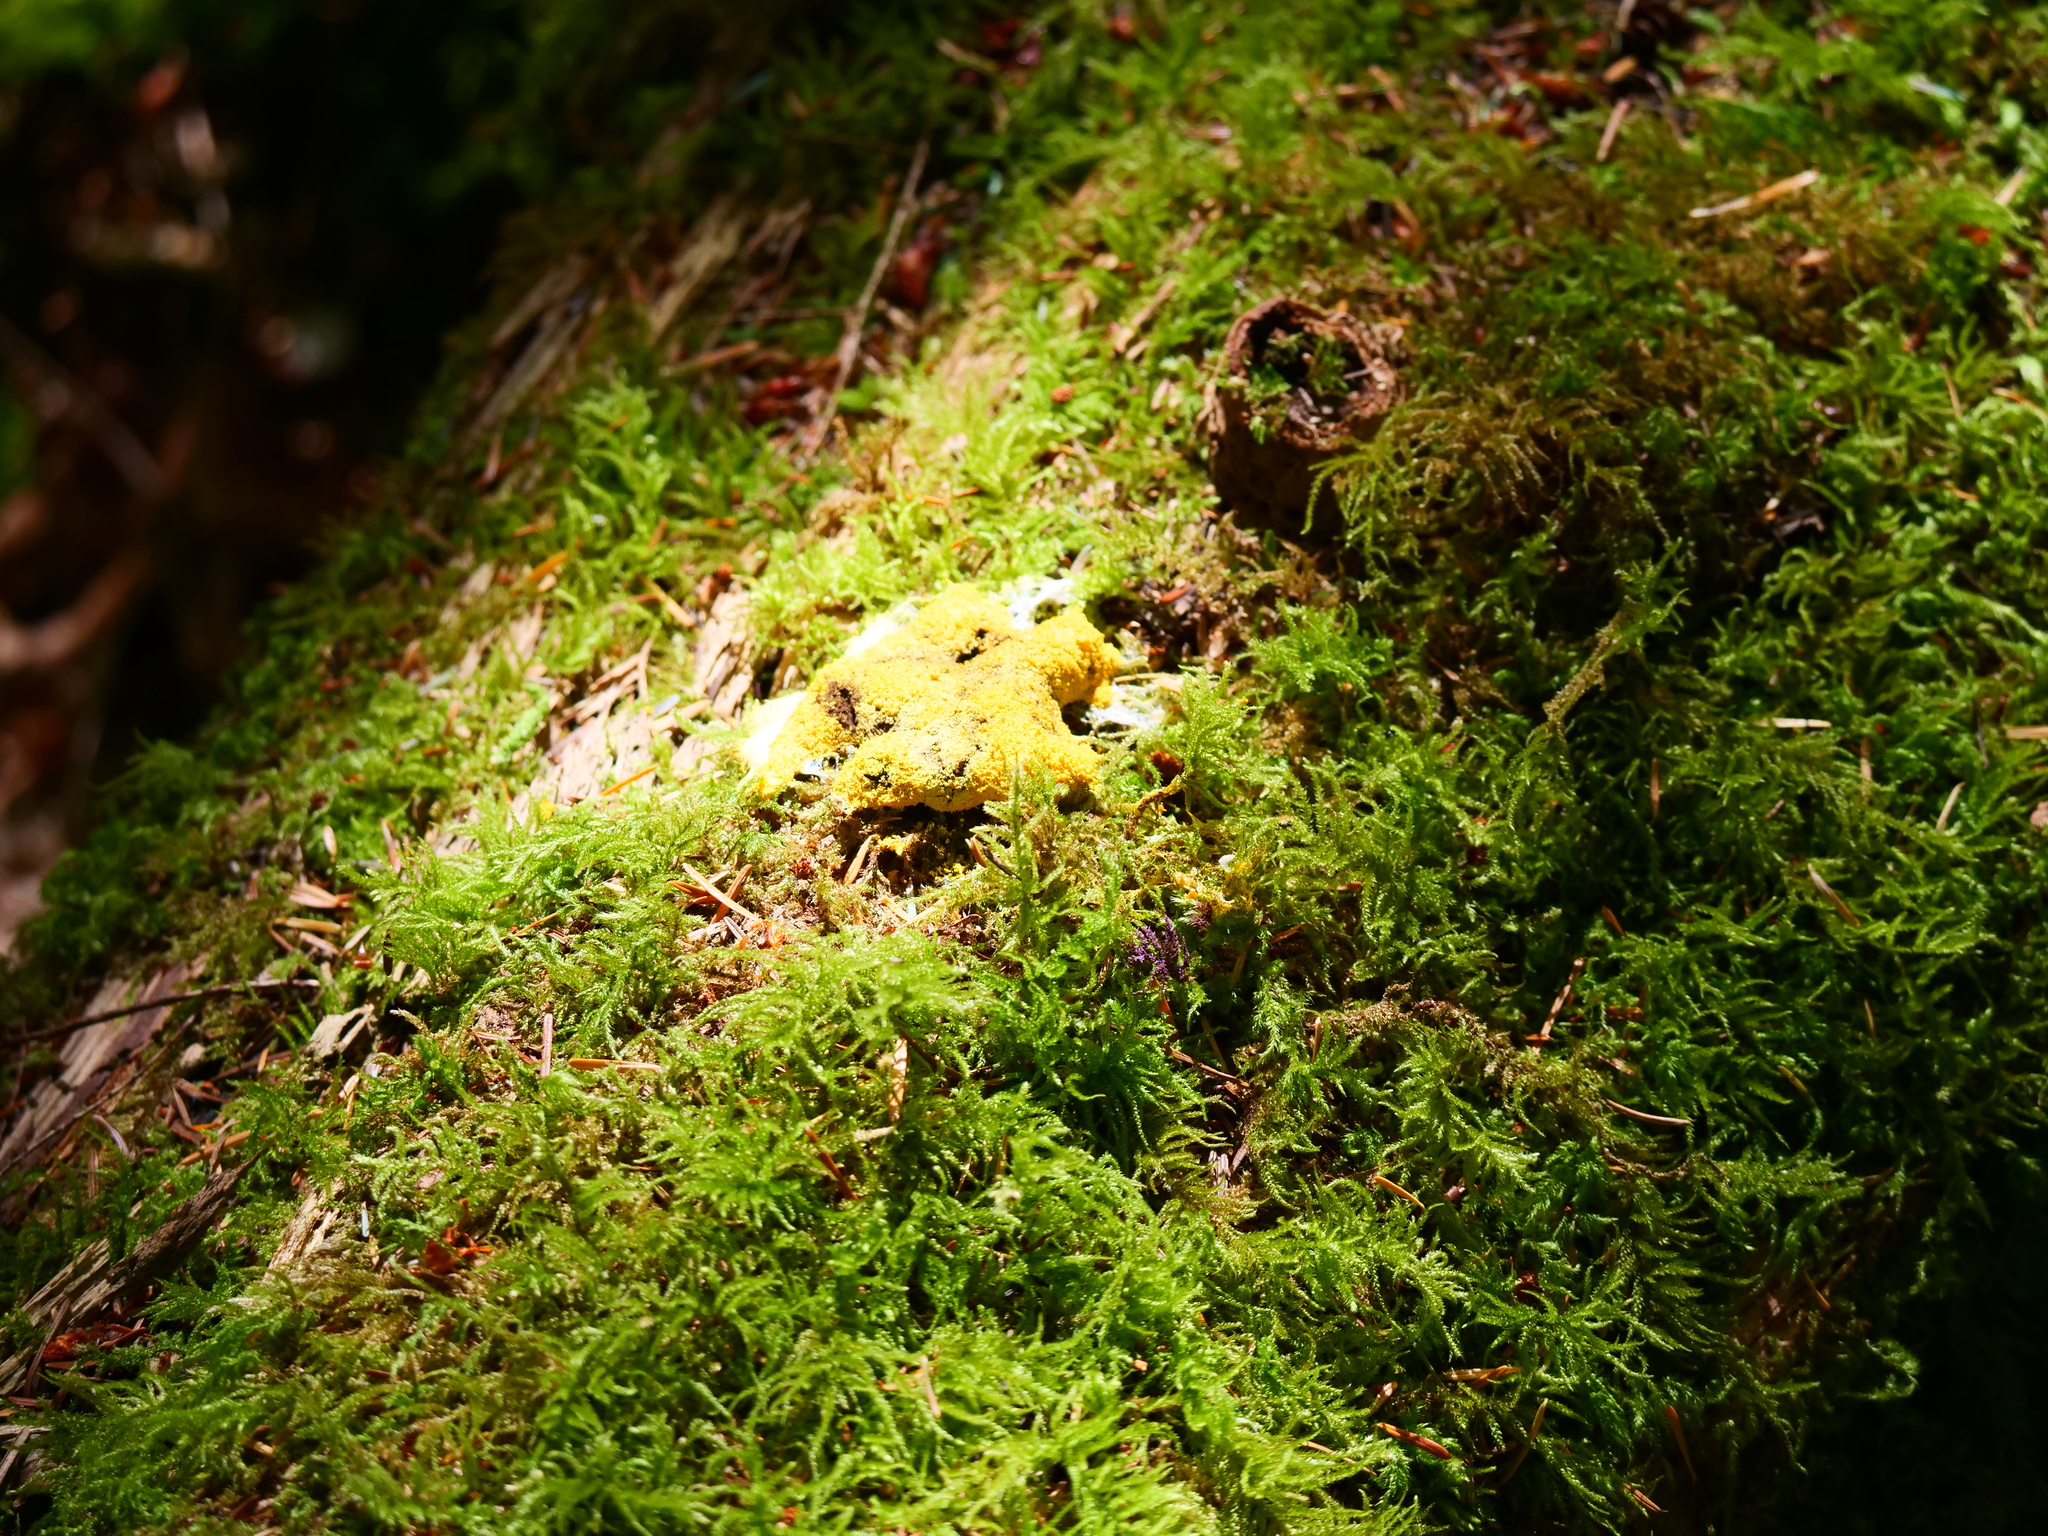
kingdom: Protozoa
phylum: Mycetozoa
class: Myxomycetes
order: Physarales
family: Physaraceae
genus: Fuligo
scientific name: Fuligo septica
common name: Dog vomit slime mold
